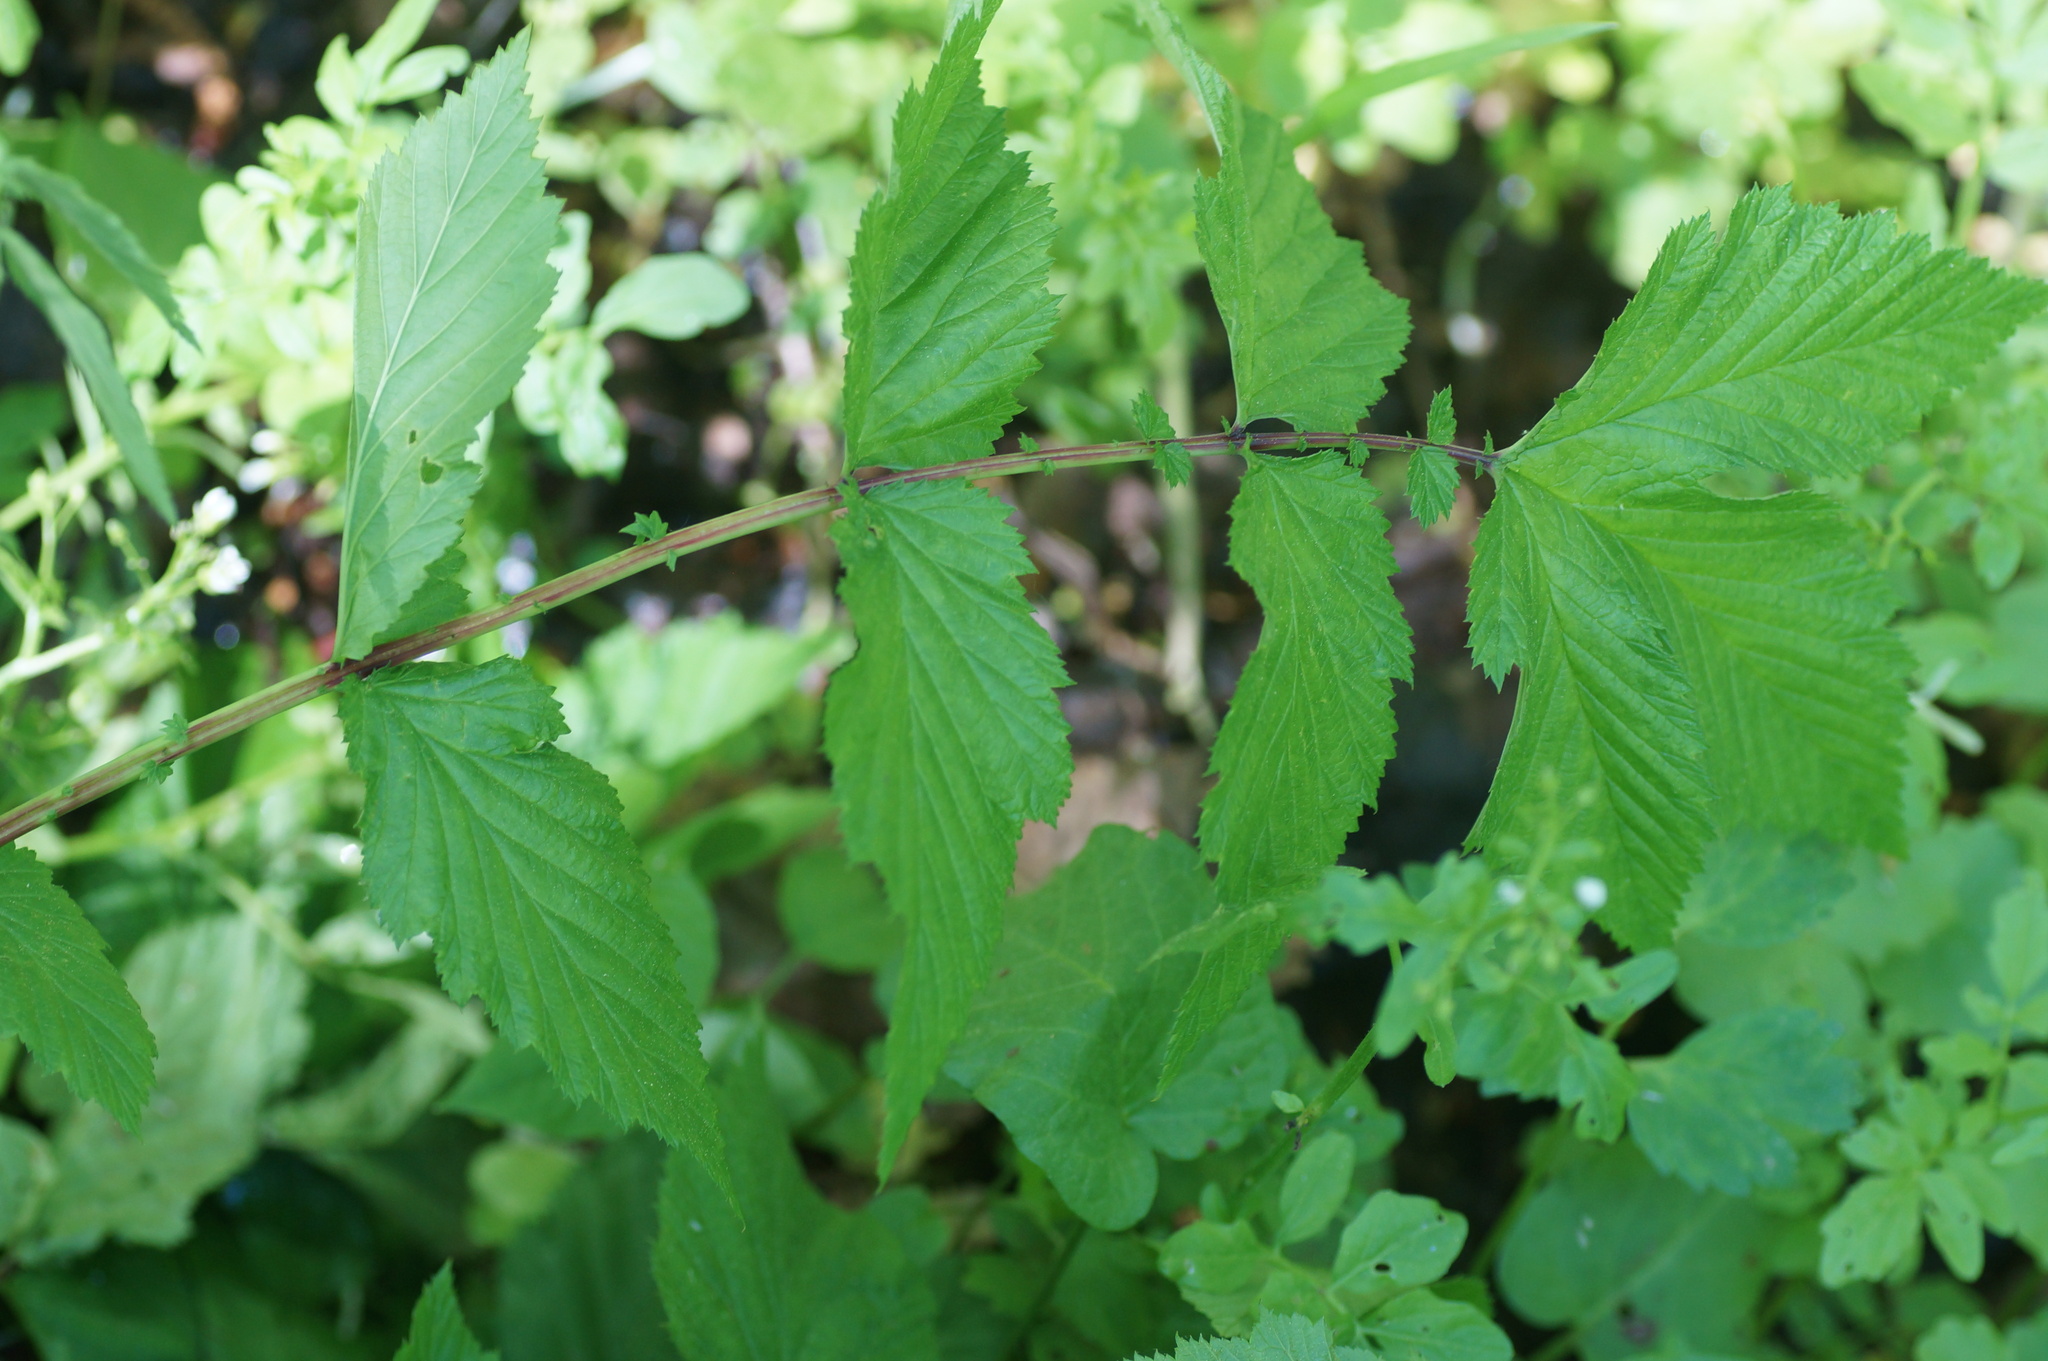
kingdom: Plantae
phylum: Tracheophyta
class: Magnoliopsida
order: Rosales
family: Rosaceae
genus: Filipendula
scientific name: Filipendula ulmaria
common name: Meadowsweet
